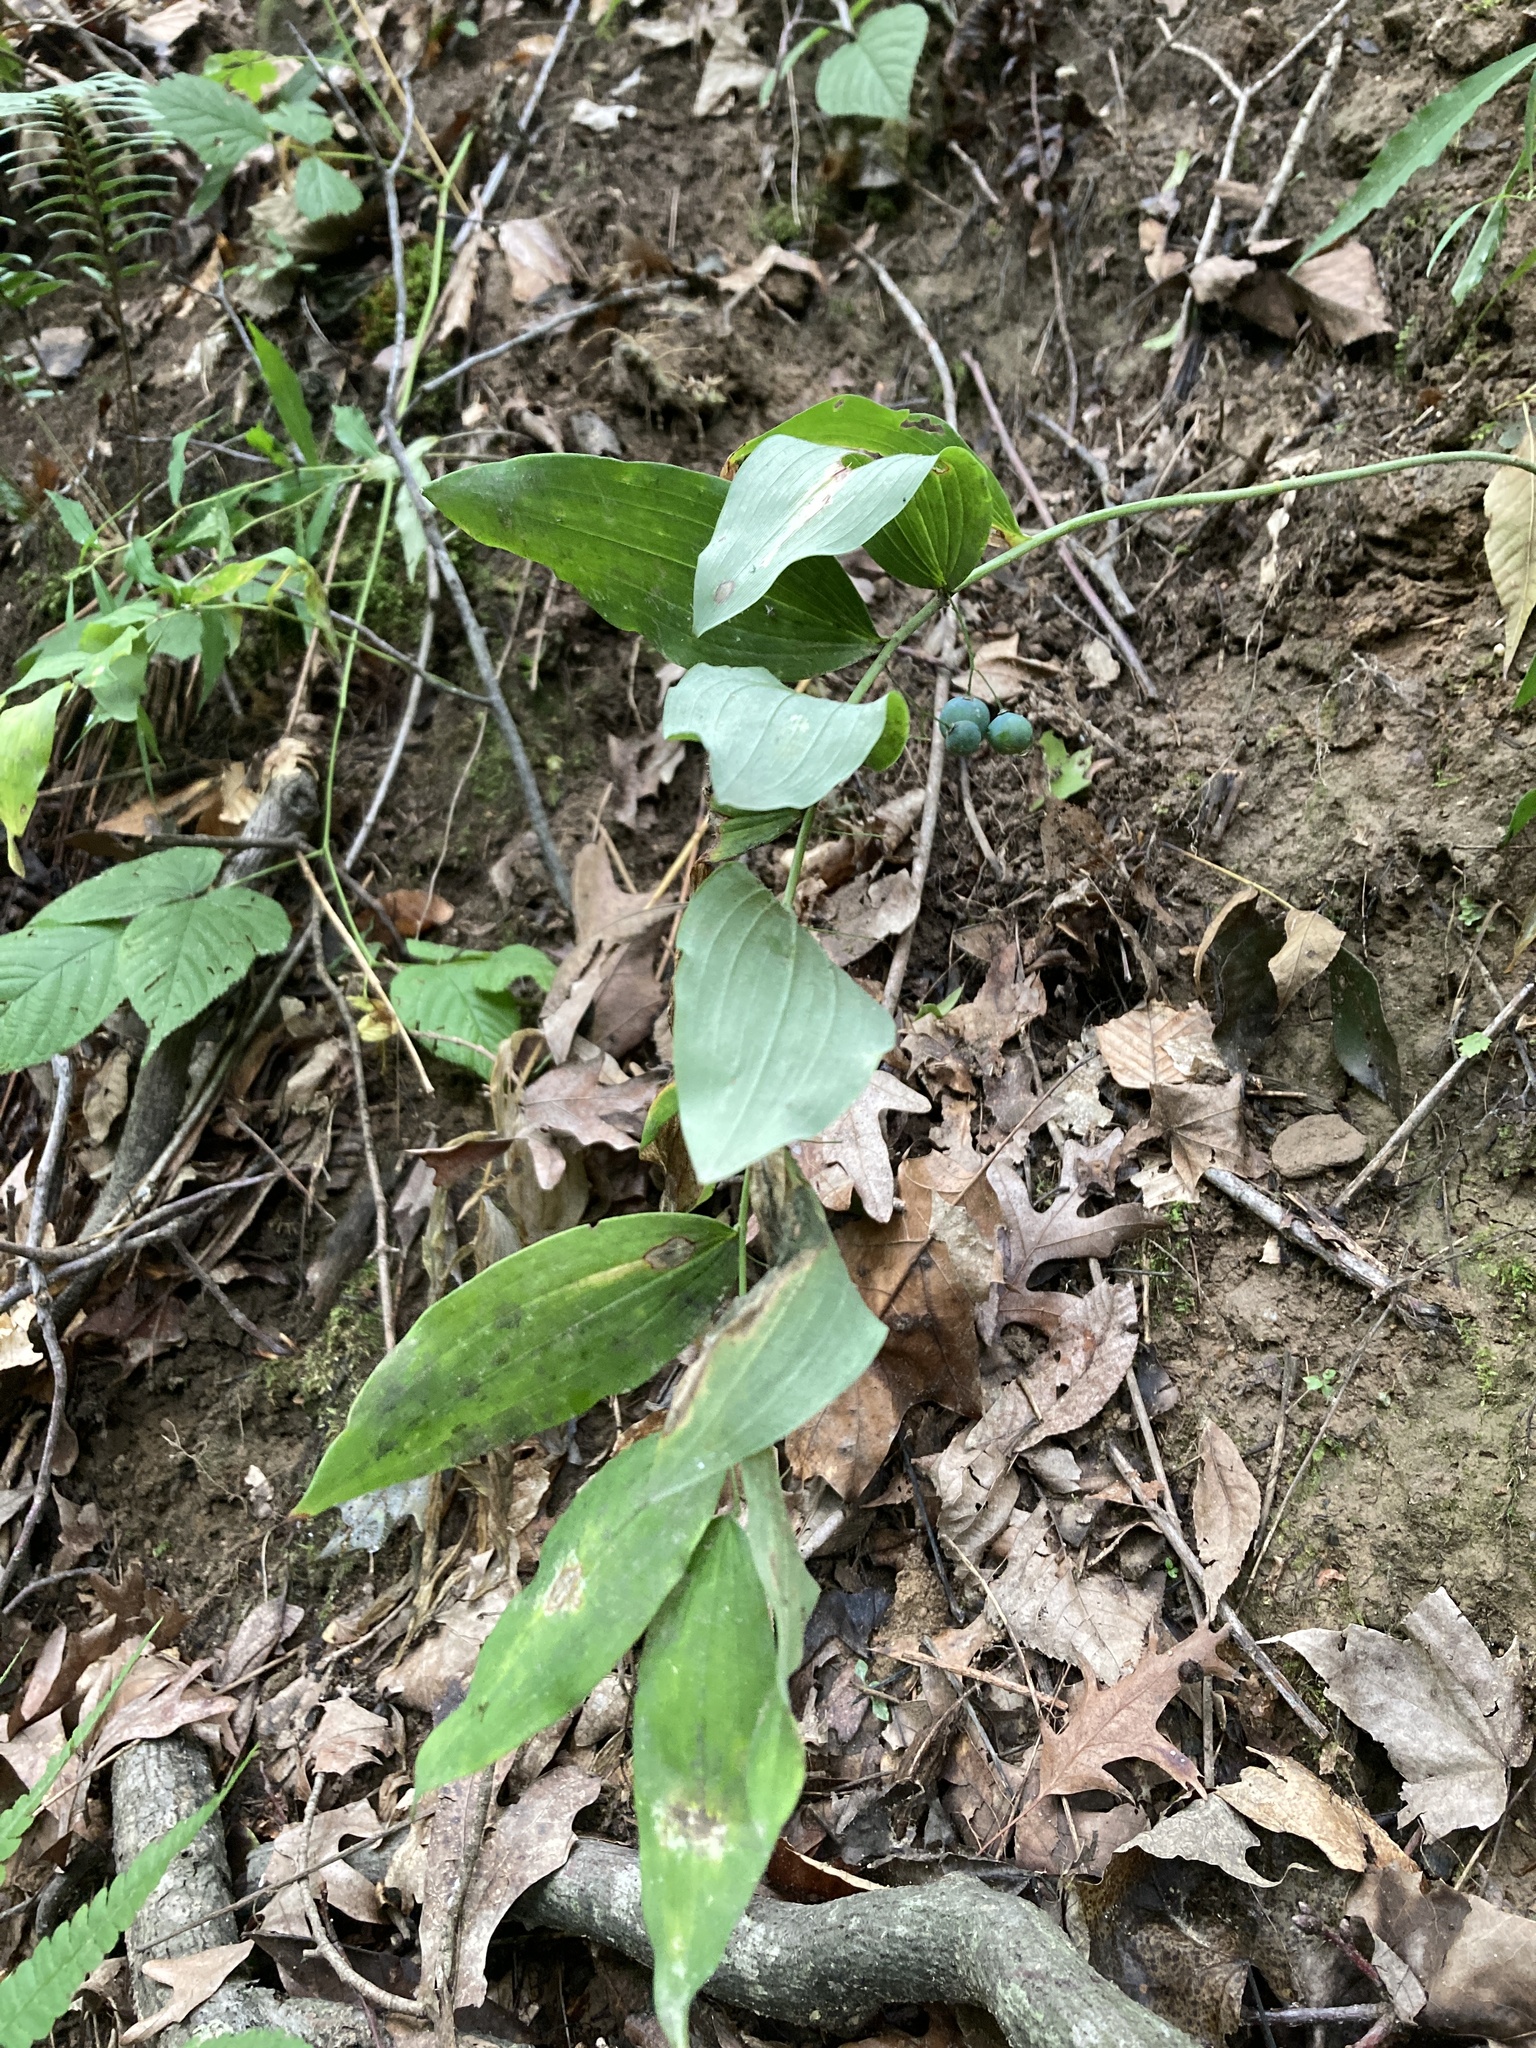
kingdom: Plantae
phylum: Tracheophyta
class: Liliopsida
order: Asparagales
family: Asparagaceae
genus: Polygonatum
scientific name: Polygonatum pubescens
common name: Downy solomon's seal
